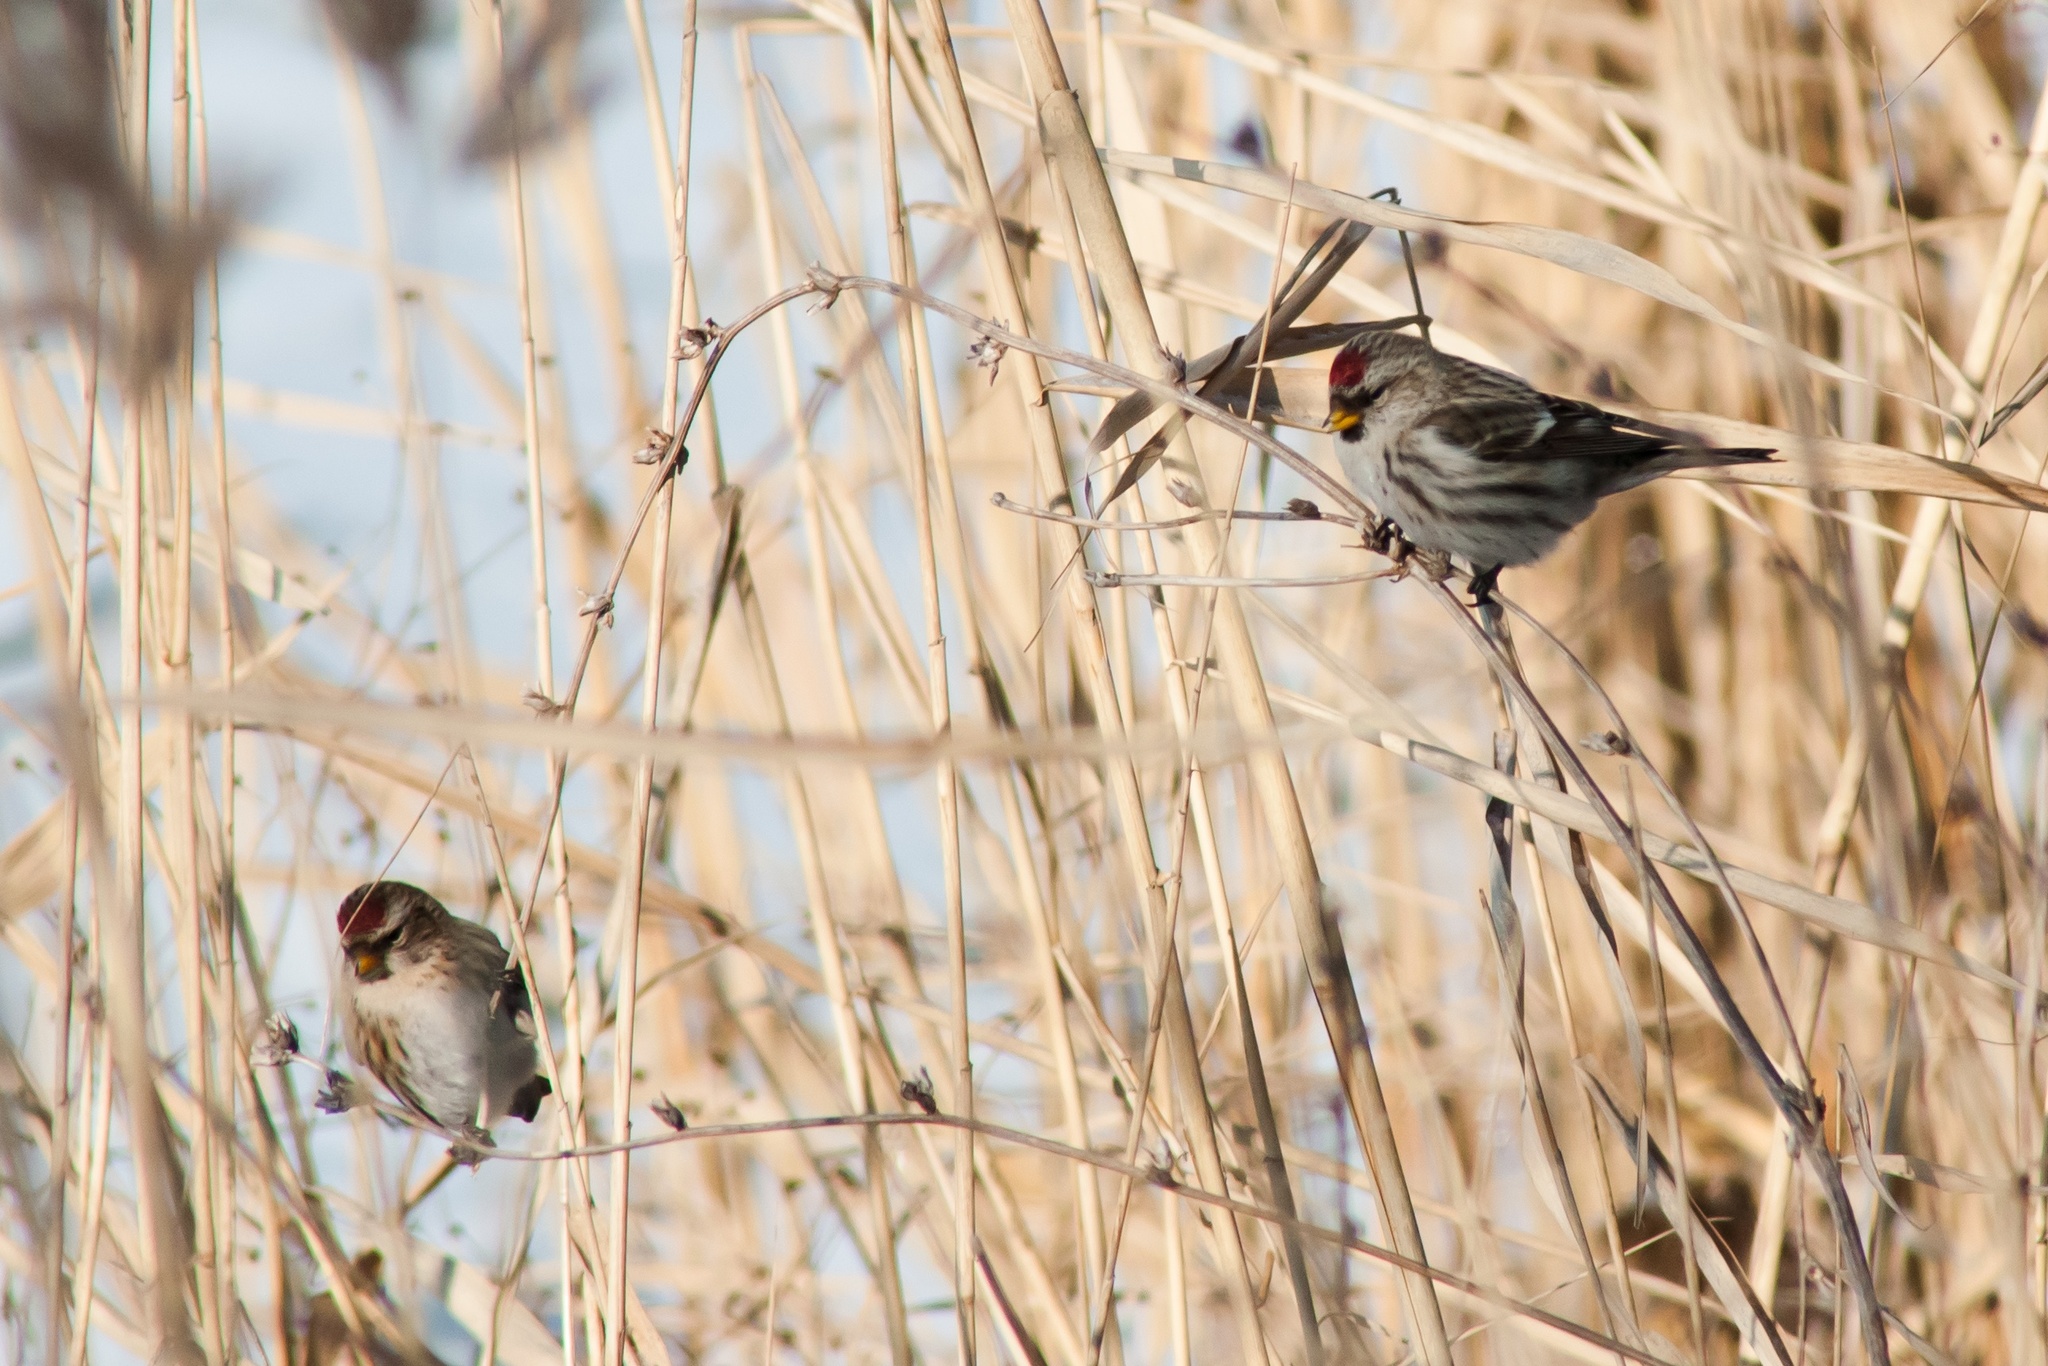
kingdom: Animalia
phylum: Chordata
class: Aves
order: Passeriformes
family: Fringillidae
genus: Acanthis
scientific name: Acanthis flammea
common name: Common redpoll
